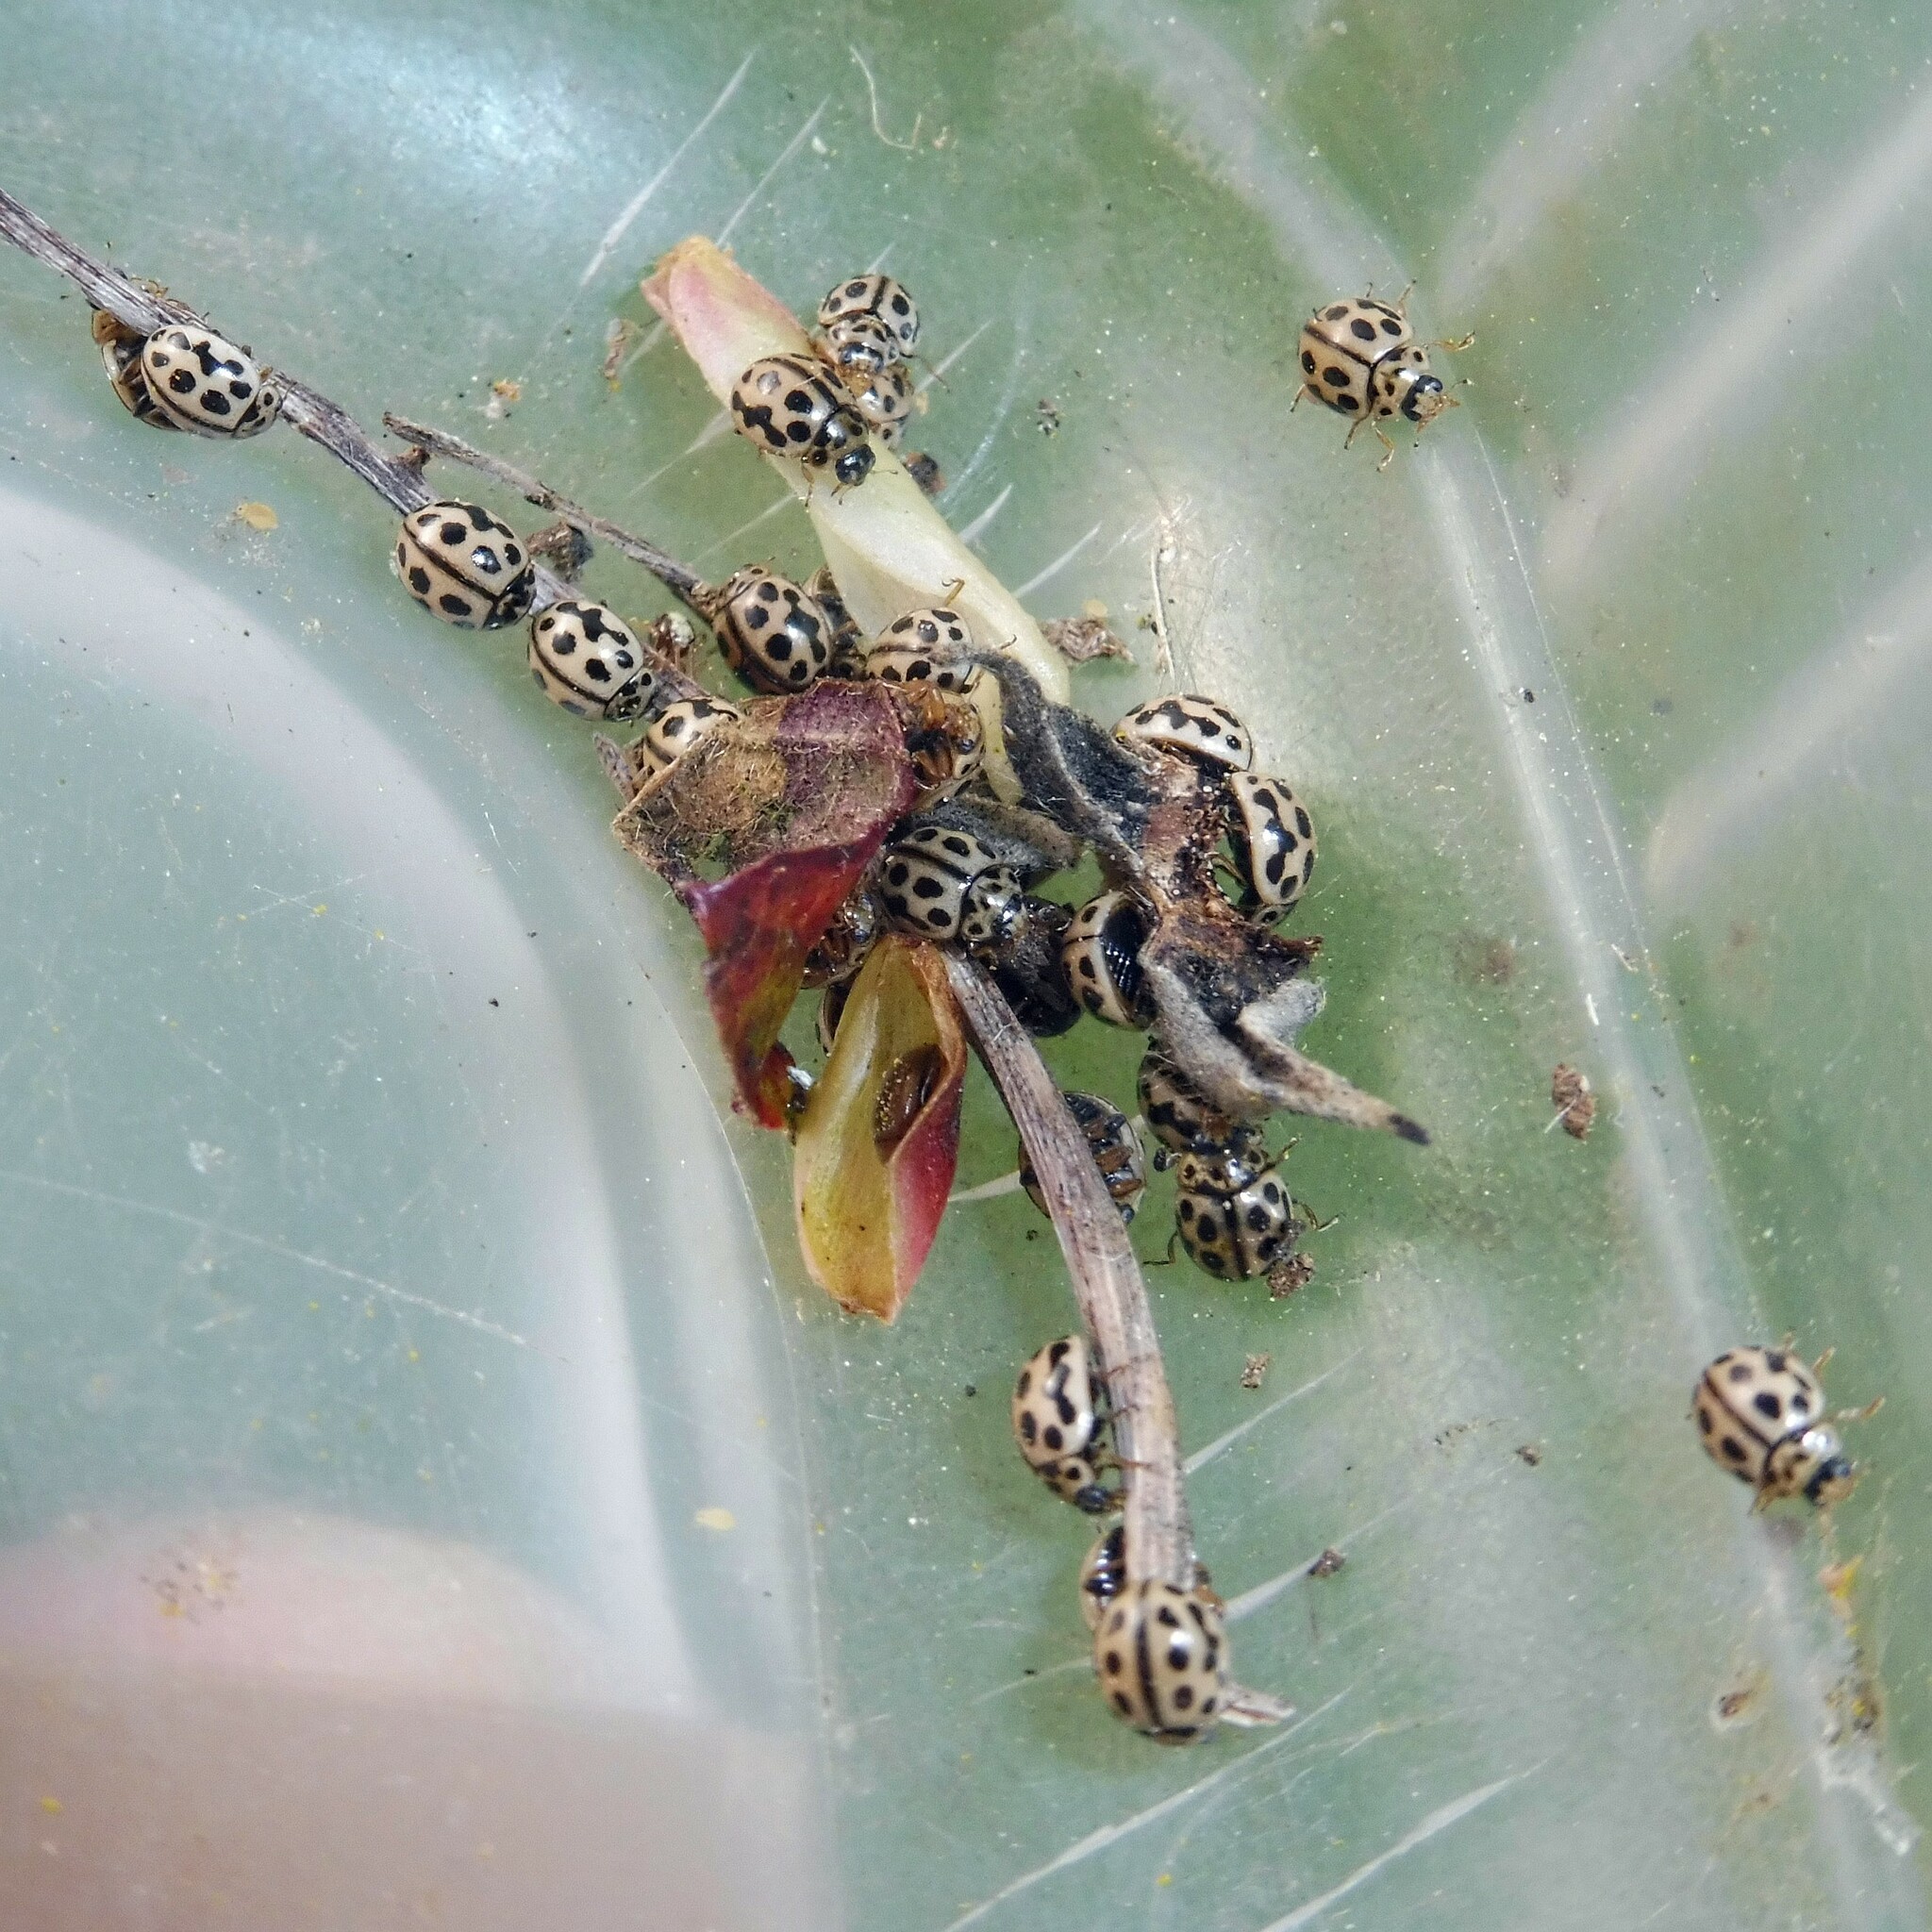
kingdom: Animalia
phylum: Arthropoda
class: Insecta
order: Coleoptera
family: Coccinellidae
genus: Tytthaspis
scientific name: Tytthaspis sedecimpunctata
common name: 16-spot ladybird
